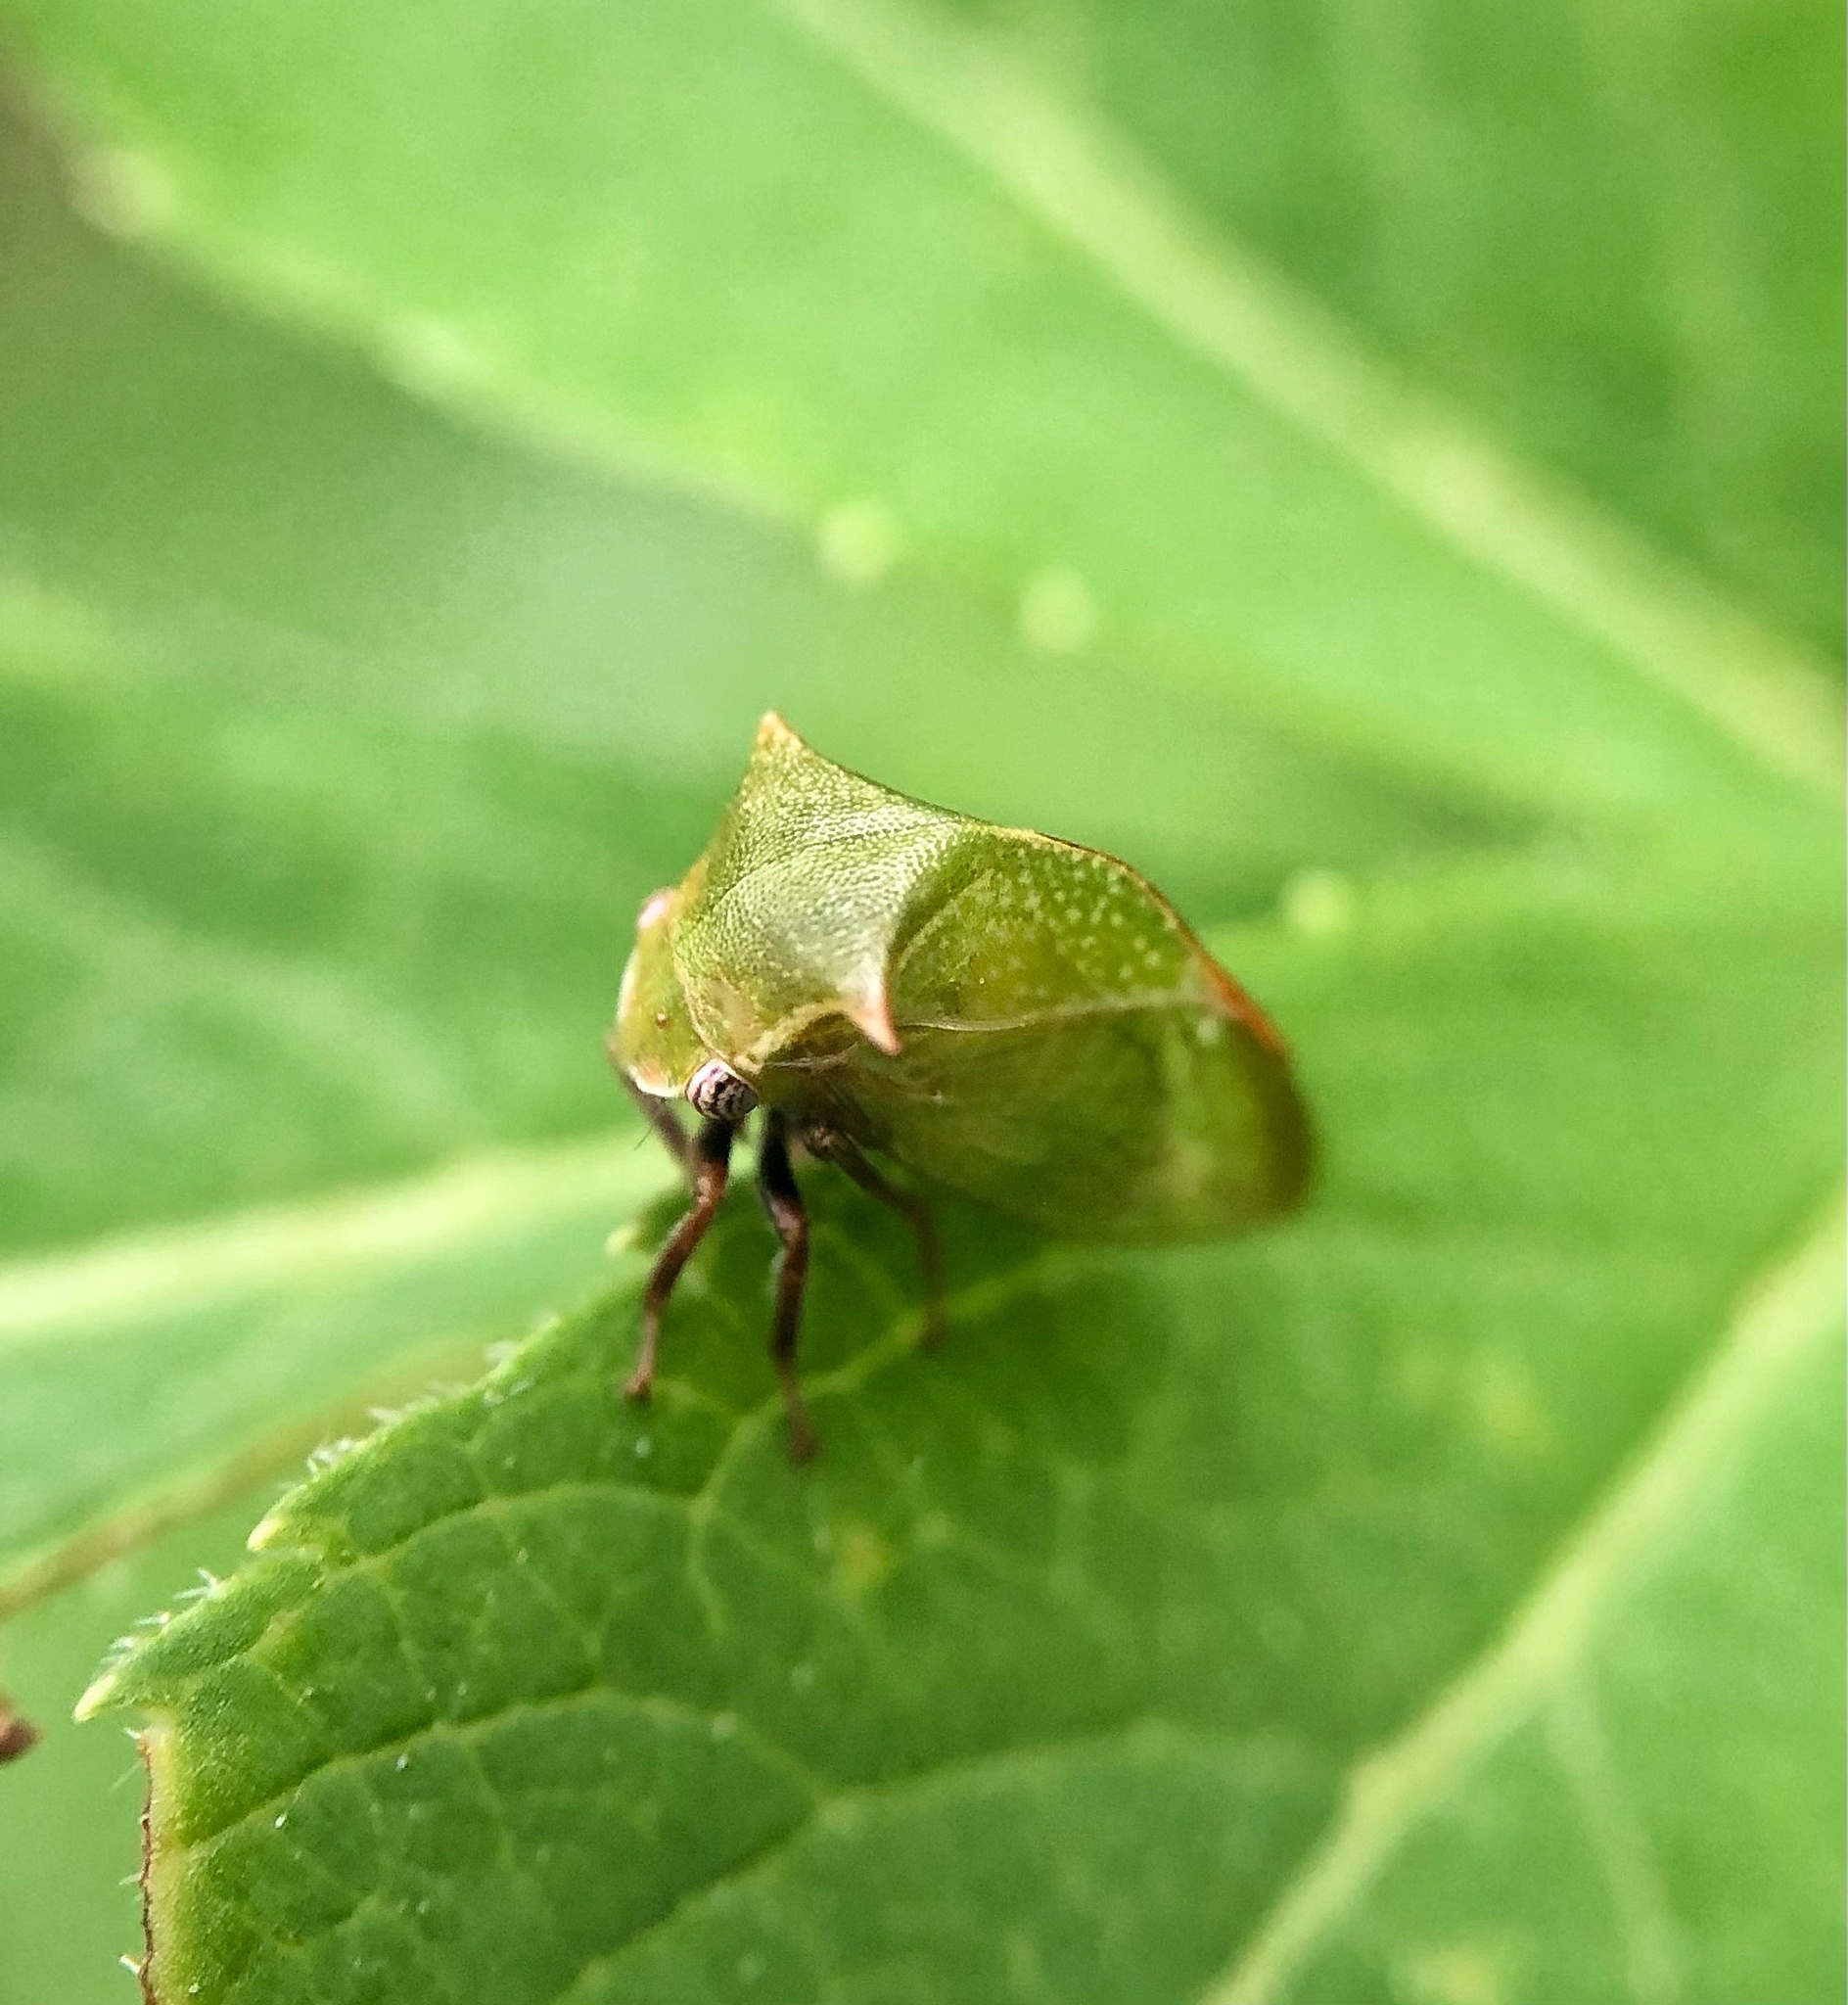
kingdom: Animalia
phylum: Arthropoda
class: Insecta
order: Hemiptera
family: Membracidae
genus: Stictocephala
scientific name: Stictocephala brevitylus
